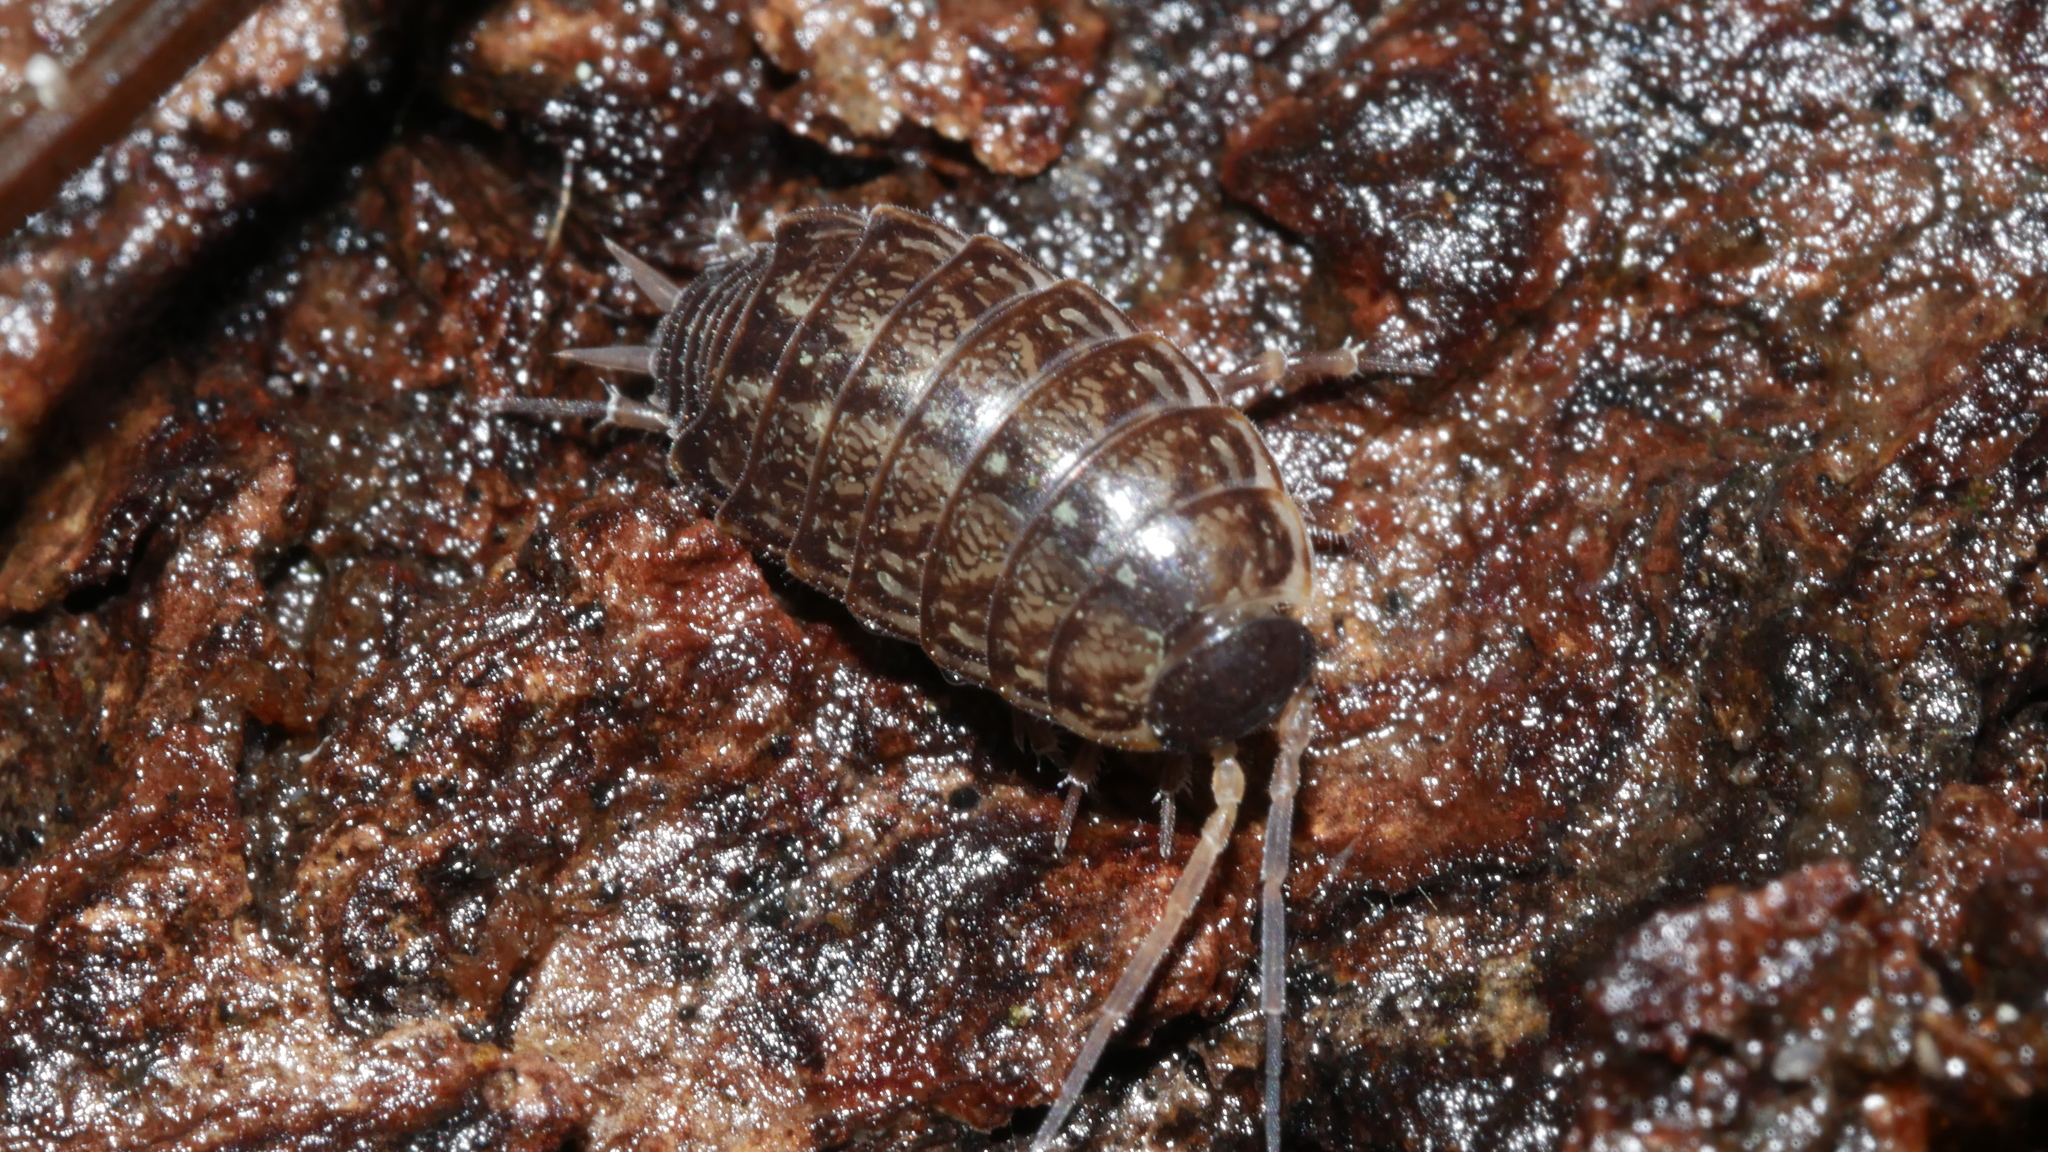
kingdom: Animalia
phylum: Arthropoda
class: Malacostraca
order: Isopoda
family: Philosciidae
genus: Philoscia
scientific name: Philoscia muscorum
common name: Common striped woodlouse
